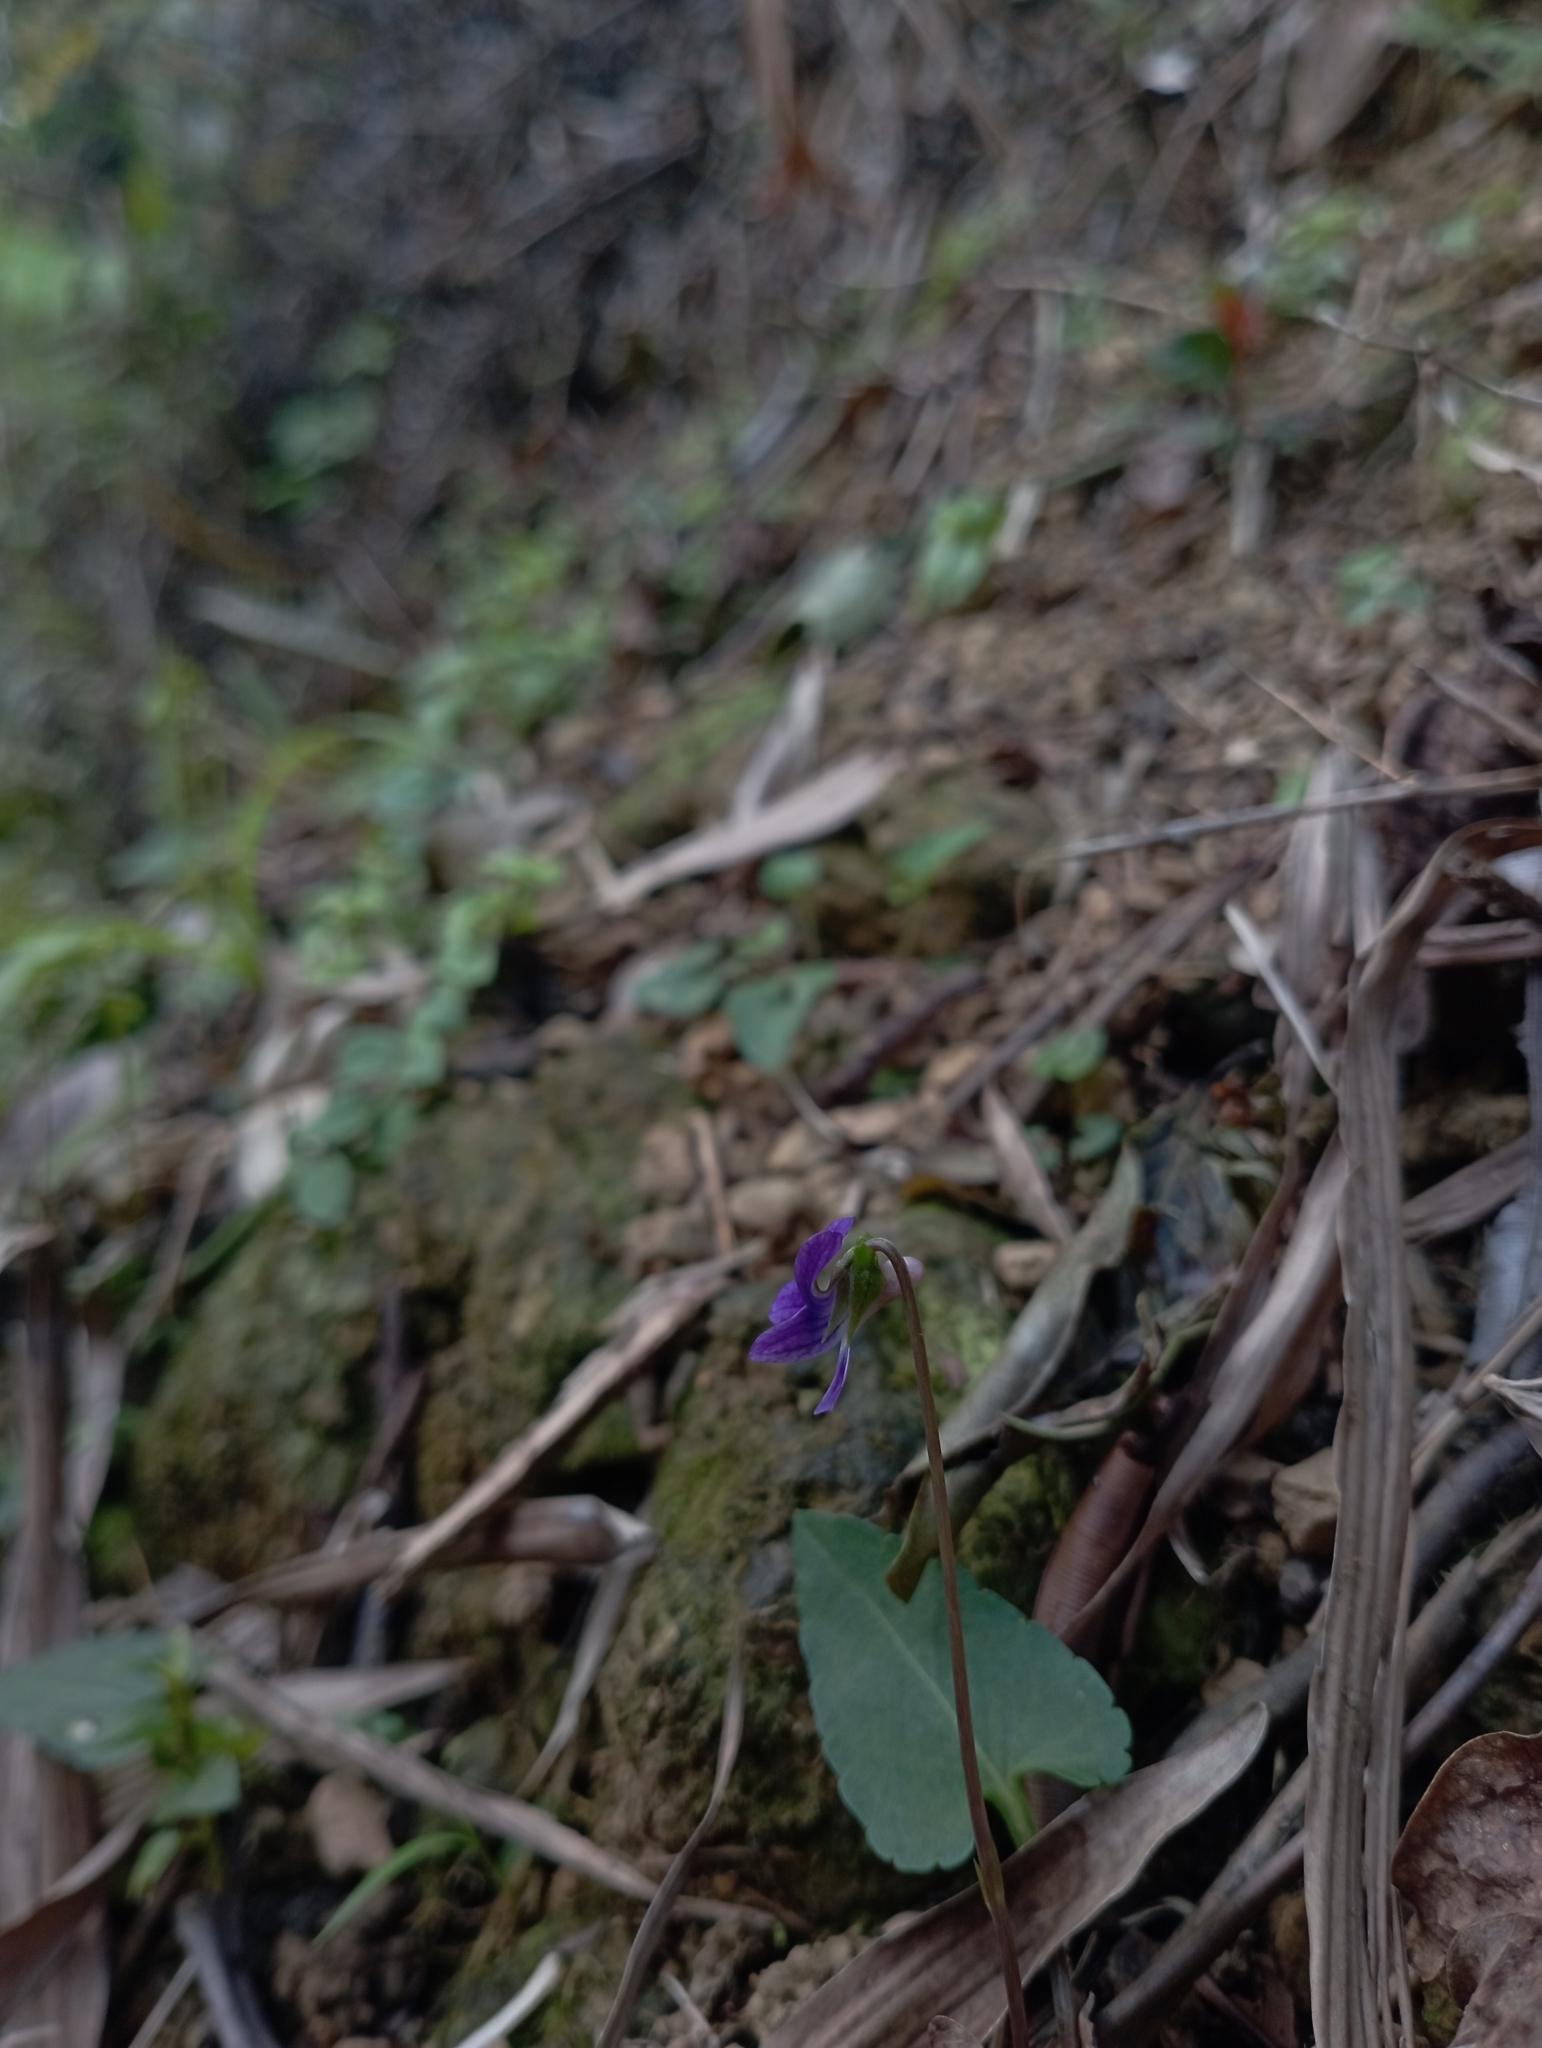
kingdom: Plantae
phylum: Tracheophyta
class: Magnoliopsida
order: Malpighiales
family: Violaceae
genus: Viola
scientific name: Viola inconspicua
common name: Long sepal violet
